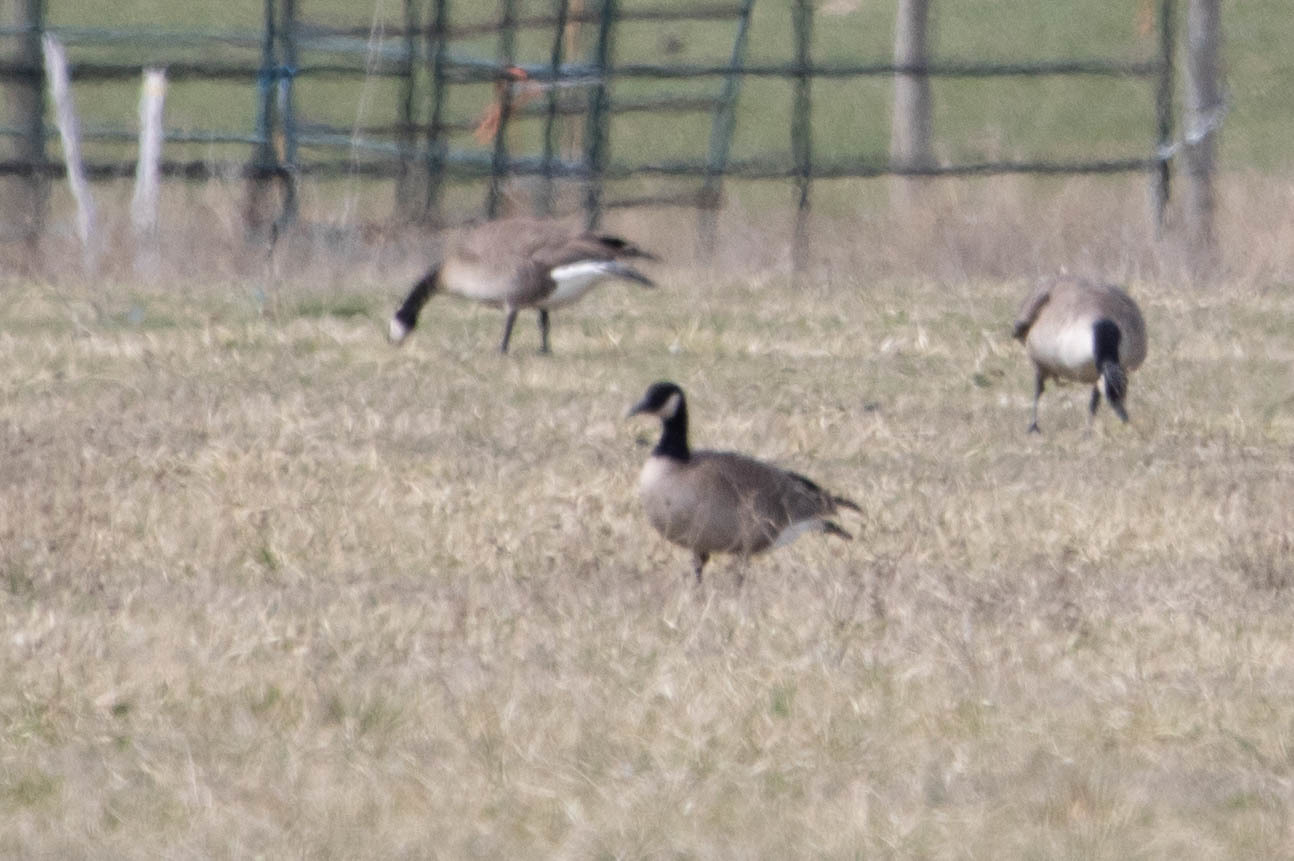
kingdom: Animalia
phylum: Chordata
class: Aves
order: Anseriformes
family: Anatidae
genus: Branta
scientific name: Branta hutchinsii
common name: Cackling goose
